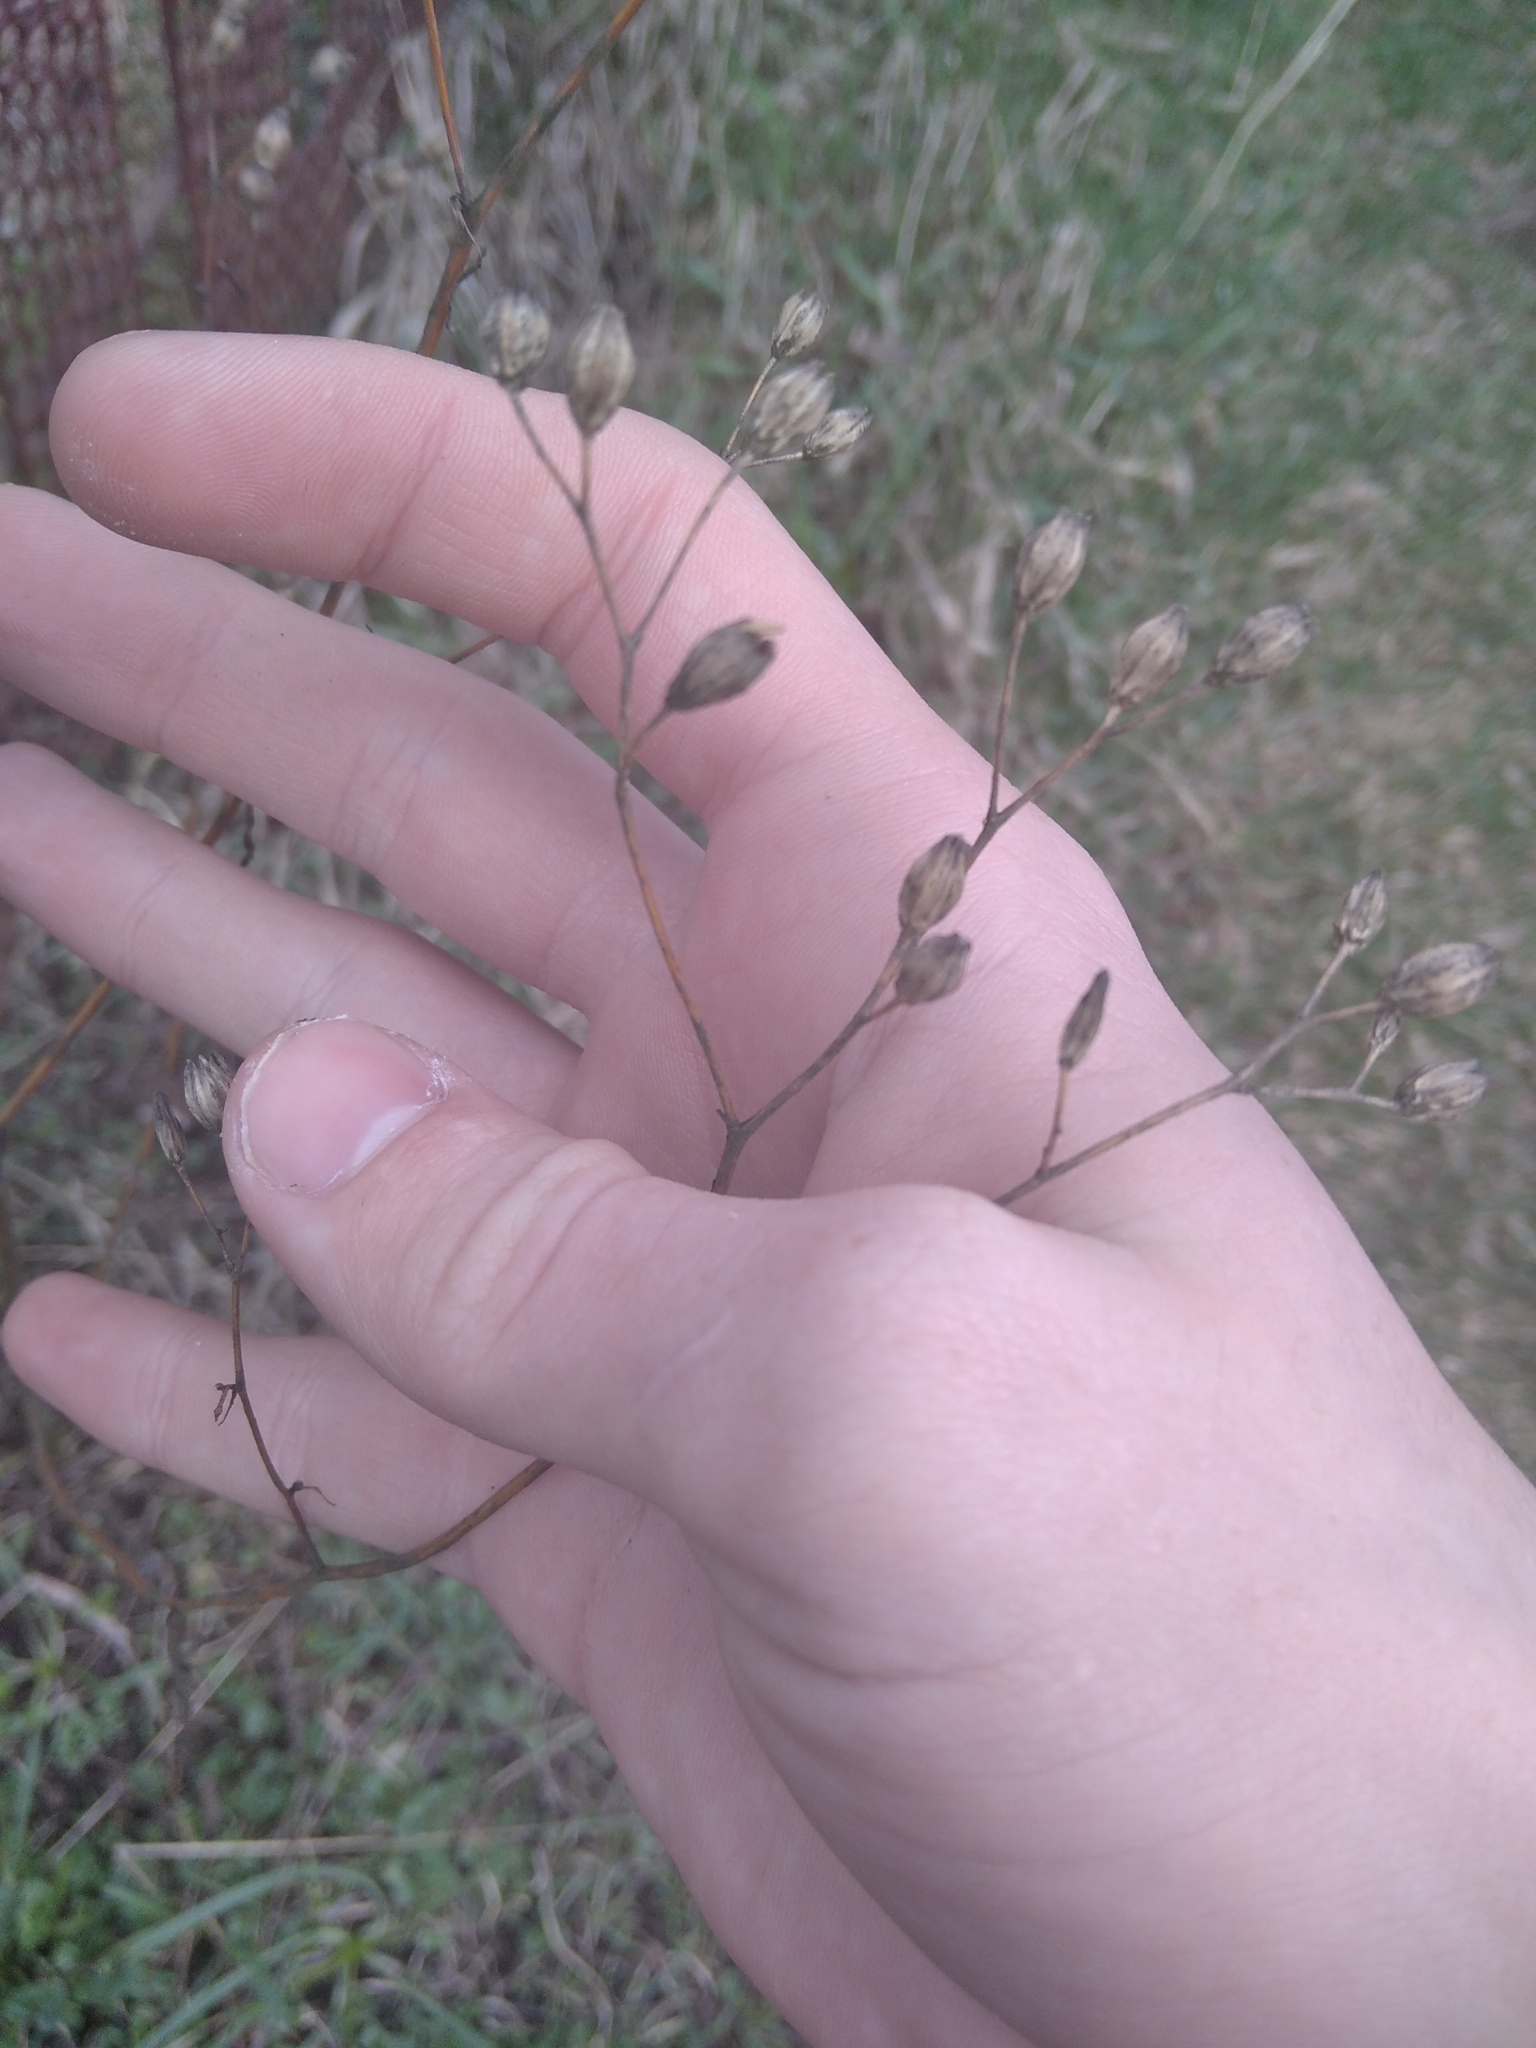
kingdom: Plantae
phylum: Tracheophyta
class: Magnoliopsida
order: Asterales
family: Asteraceae
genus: Lapsana
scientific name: Lapsana communis
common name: Nipplewort
